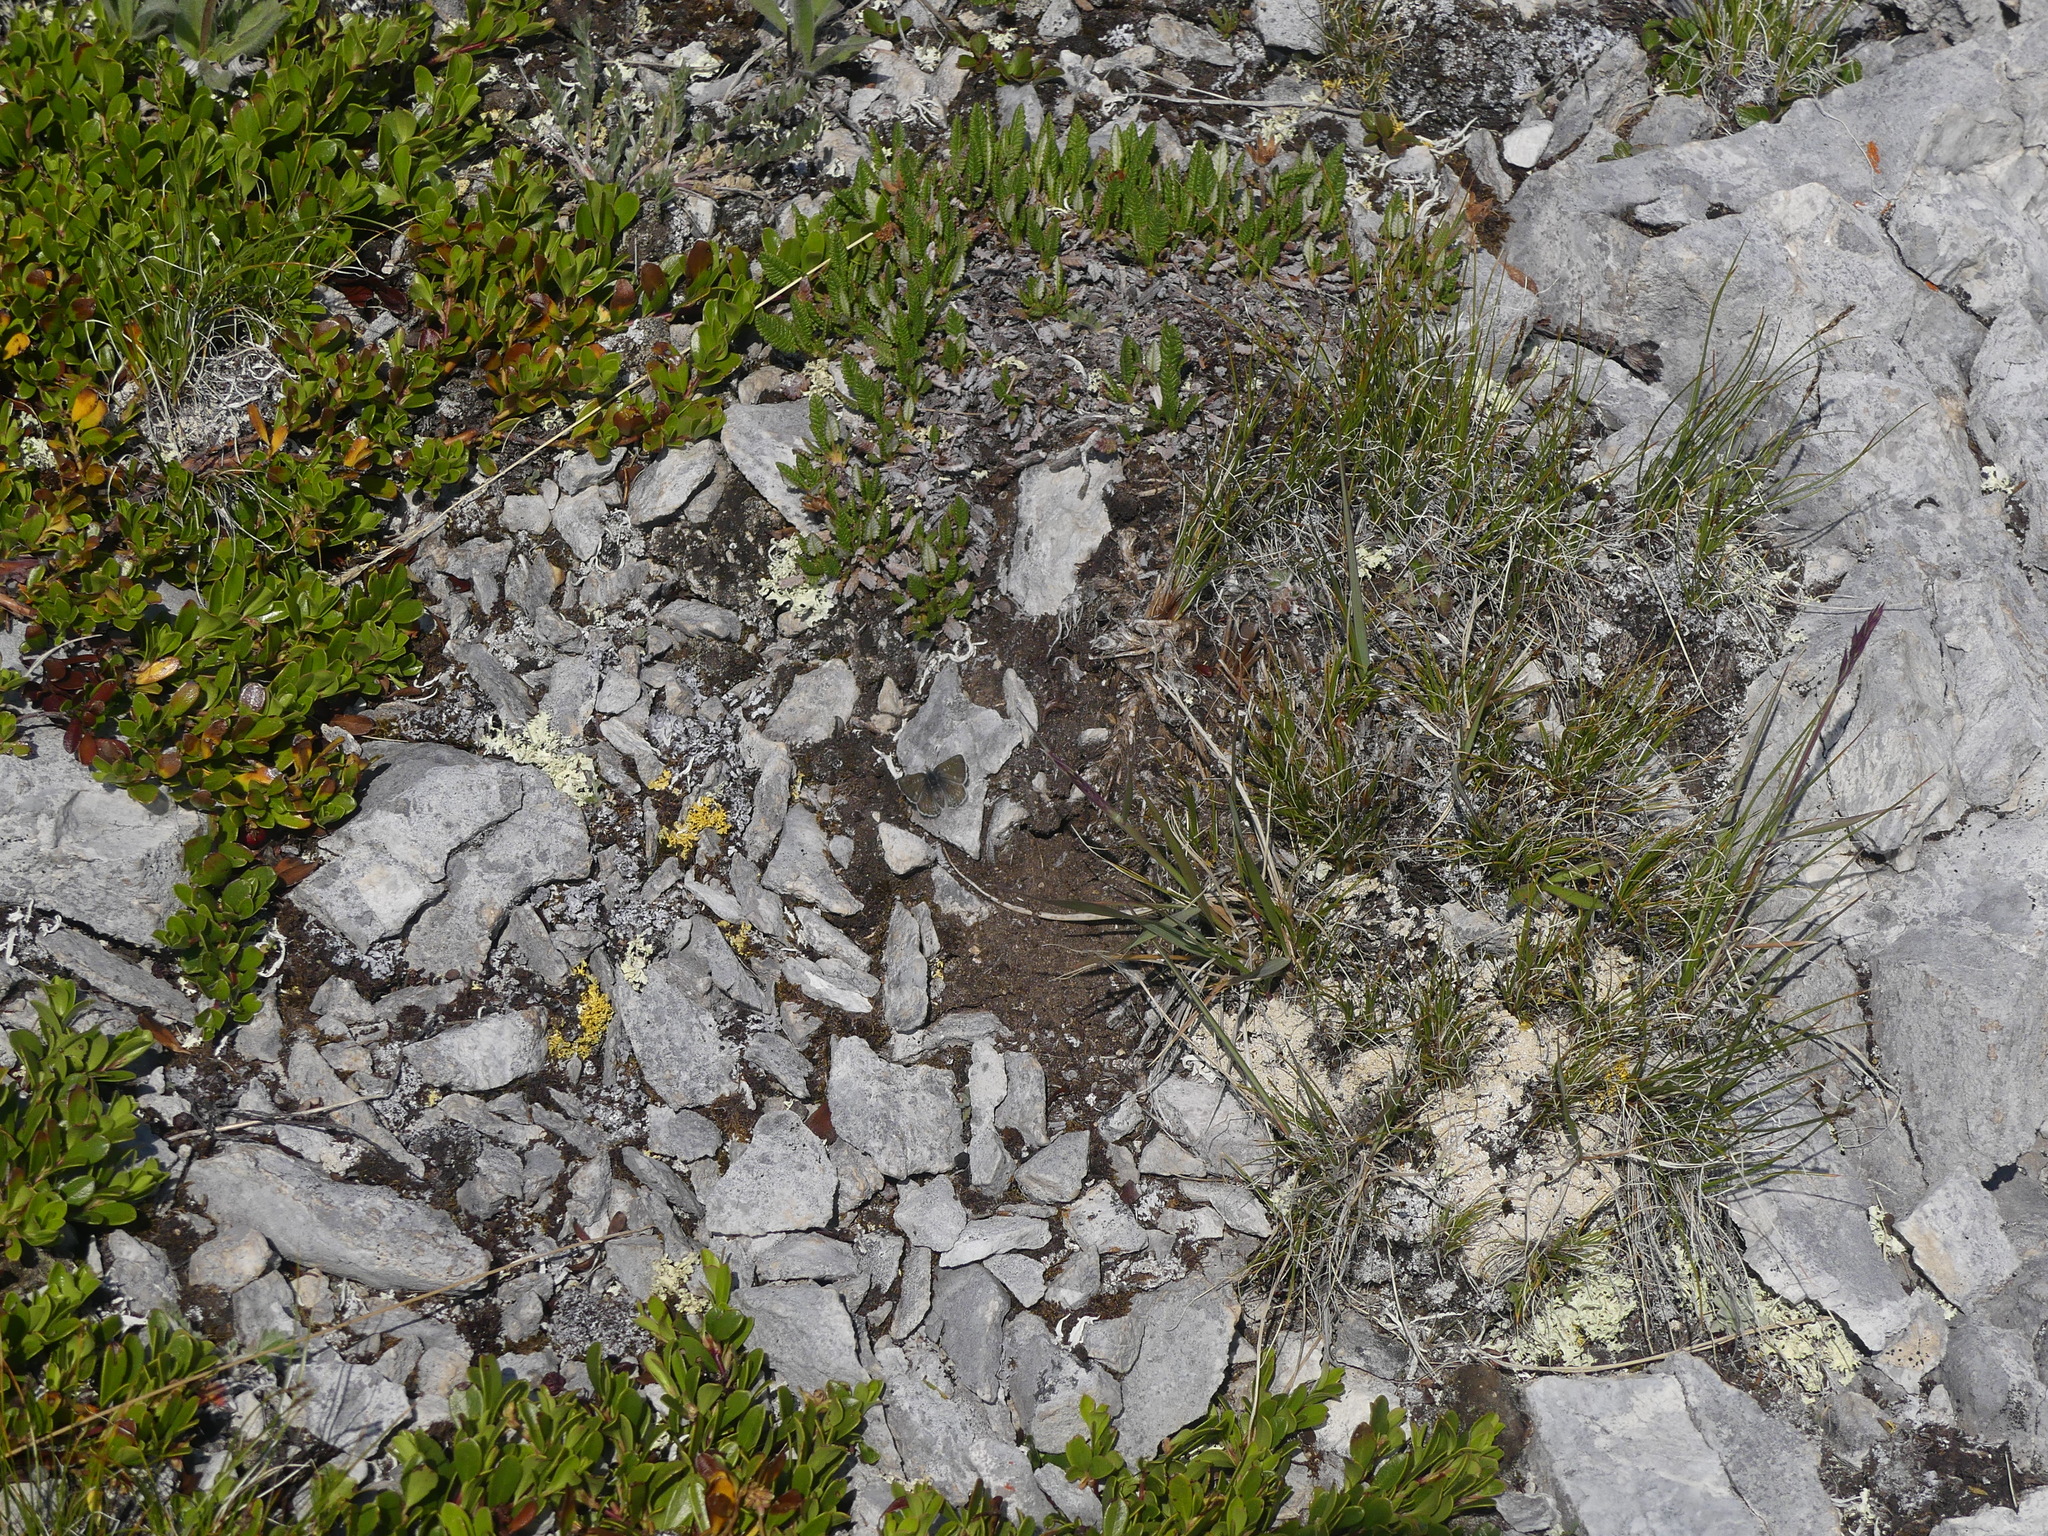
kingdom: Animalia
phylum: Arthropoda
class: Insecta
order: Lepidoptera
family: Lycaenidae
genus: Agriades
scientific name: Agriades glandon
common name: Glandon blue
